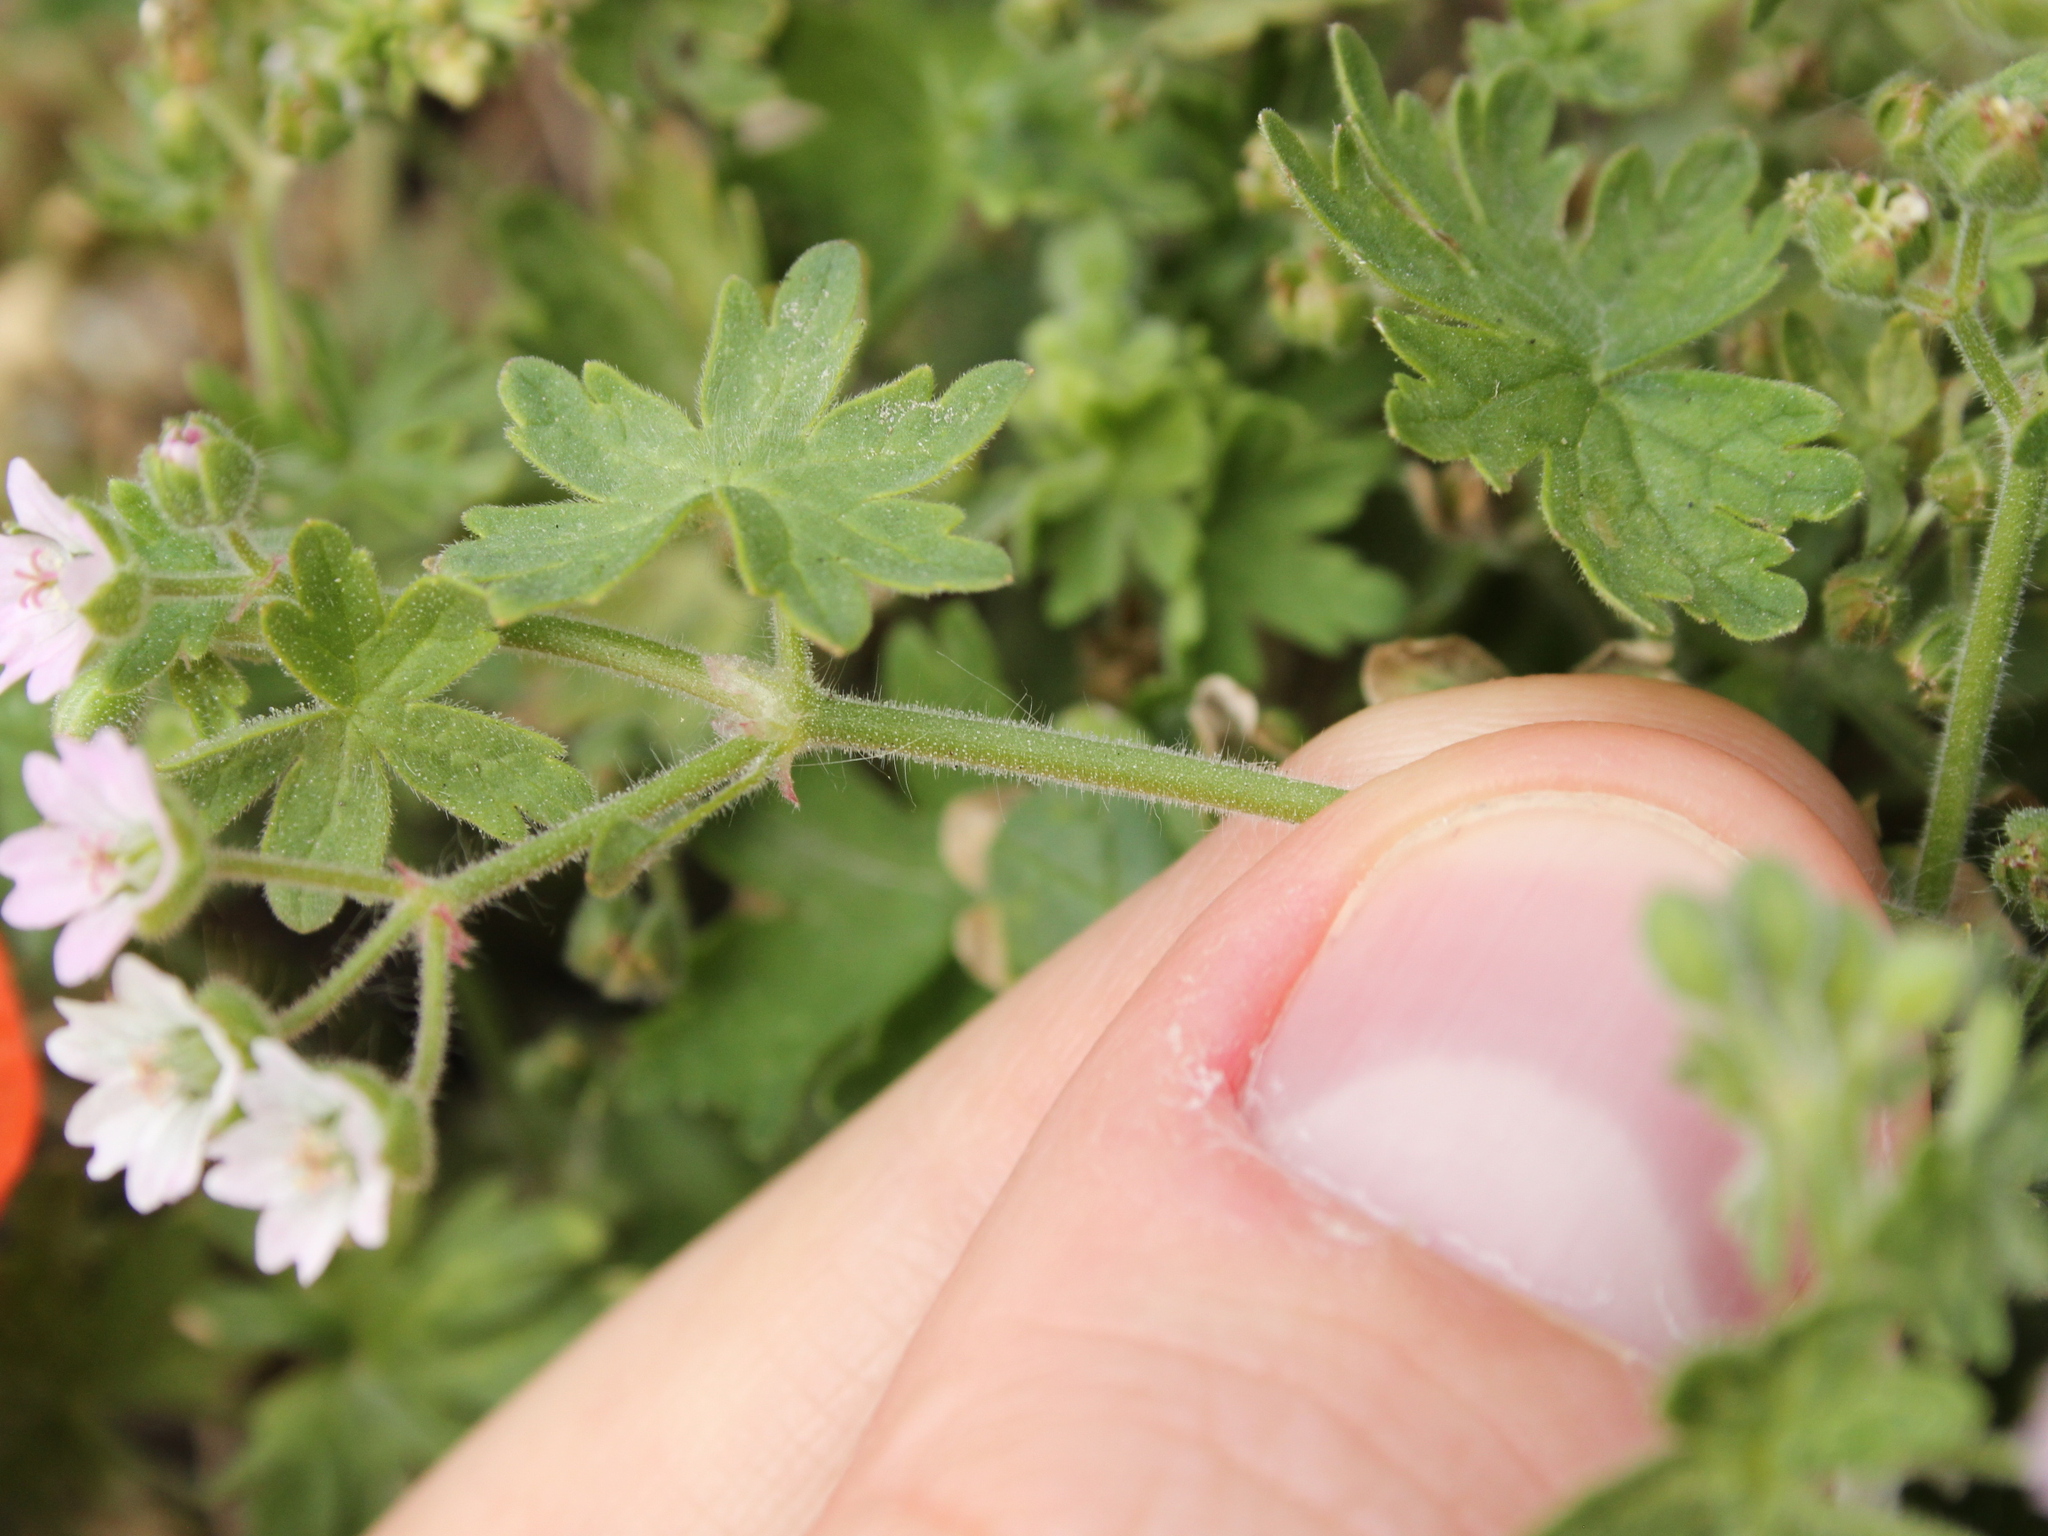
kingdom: Plantae
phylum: Tracheophyta
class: Magnoliopsida
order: Geraniales
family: Geraniaceae
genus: Geranium
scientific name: Geranium molle
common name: Dove's-foot crane's-bill
